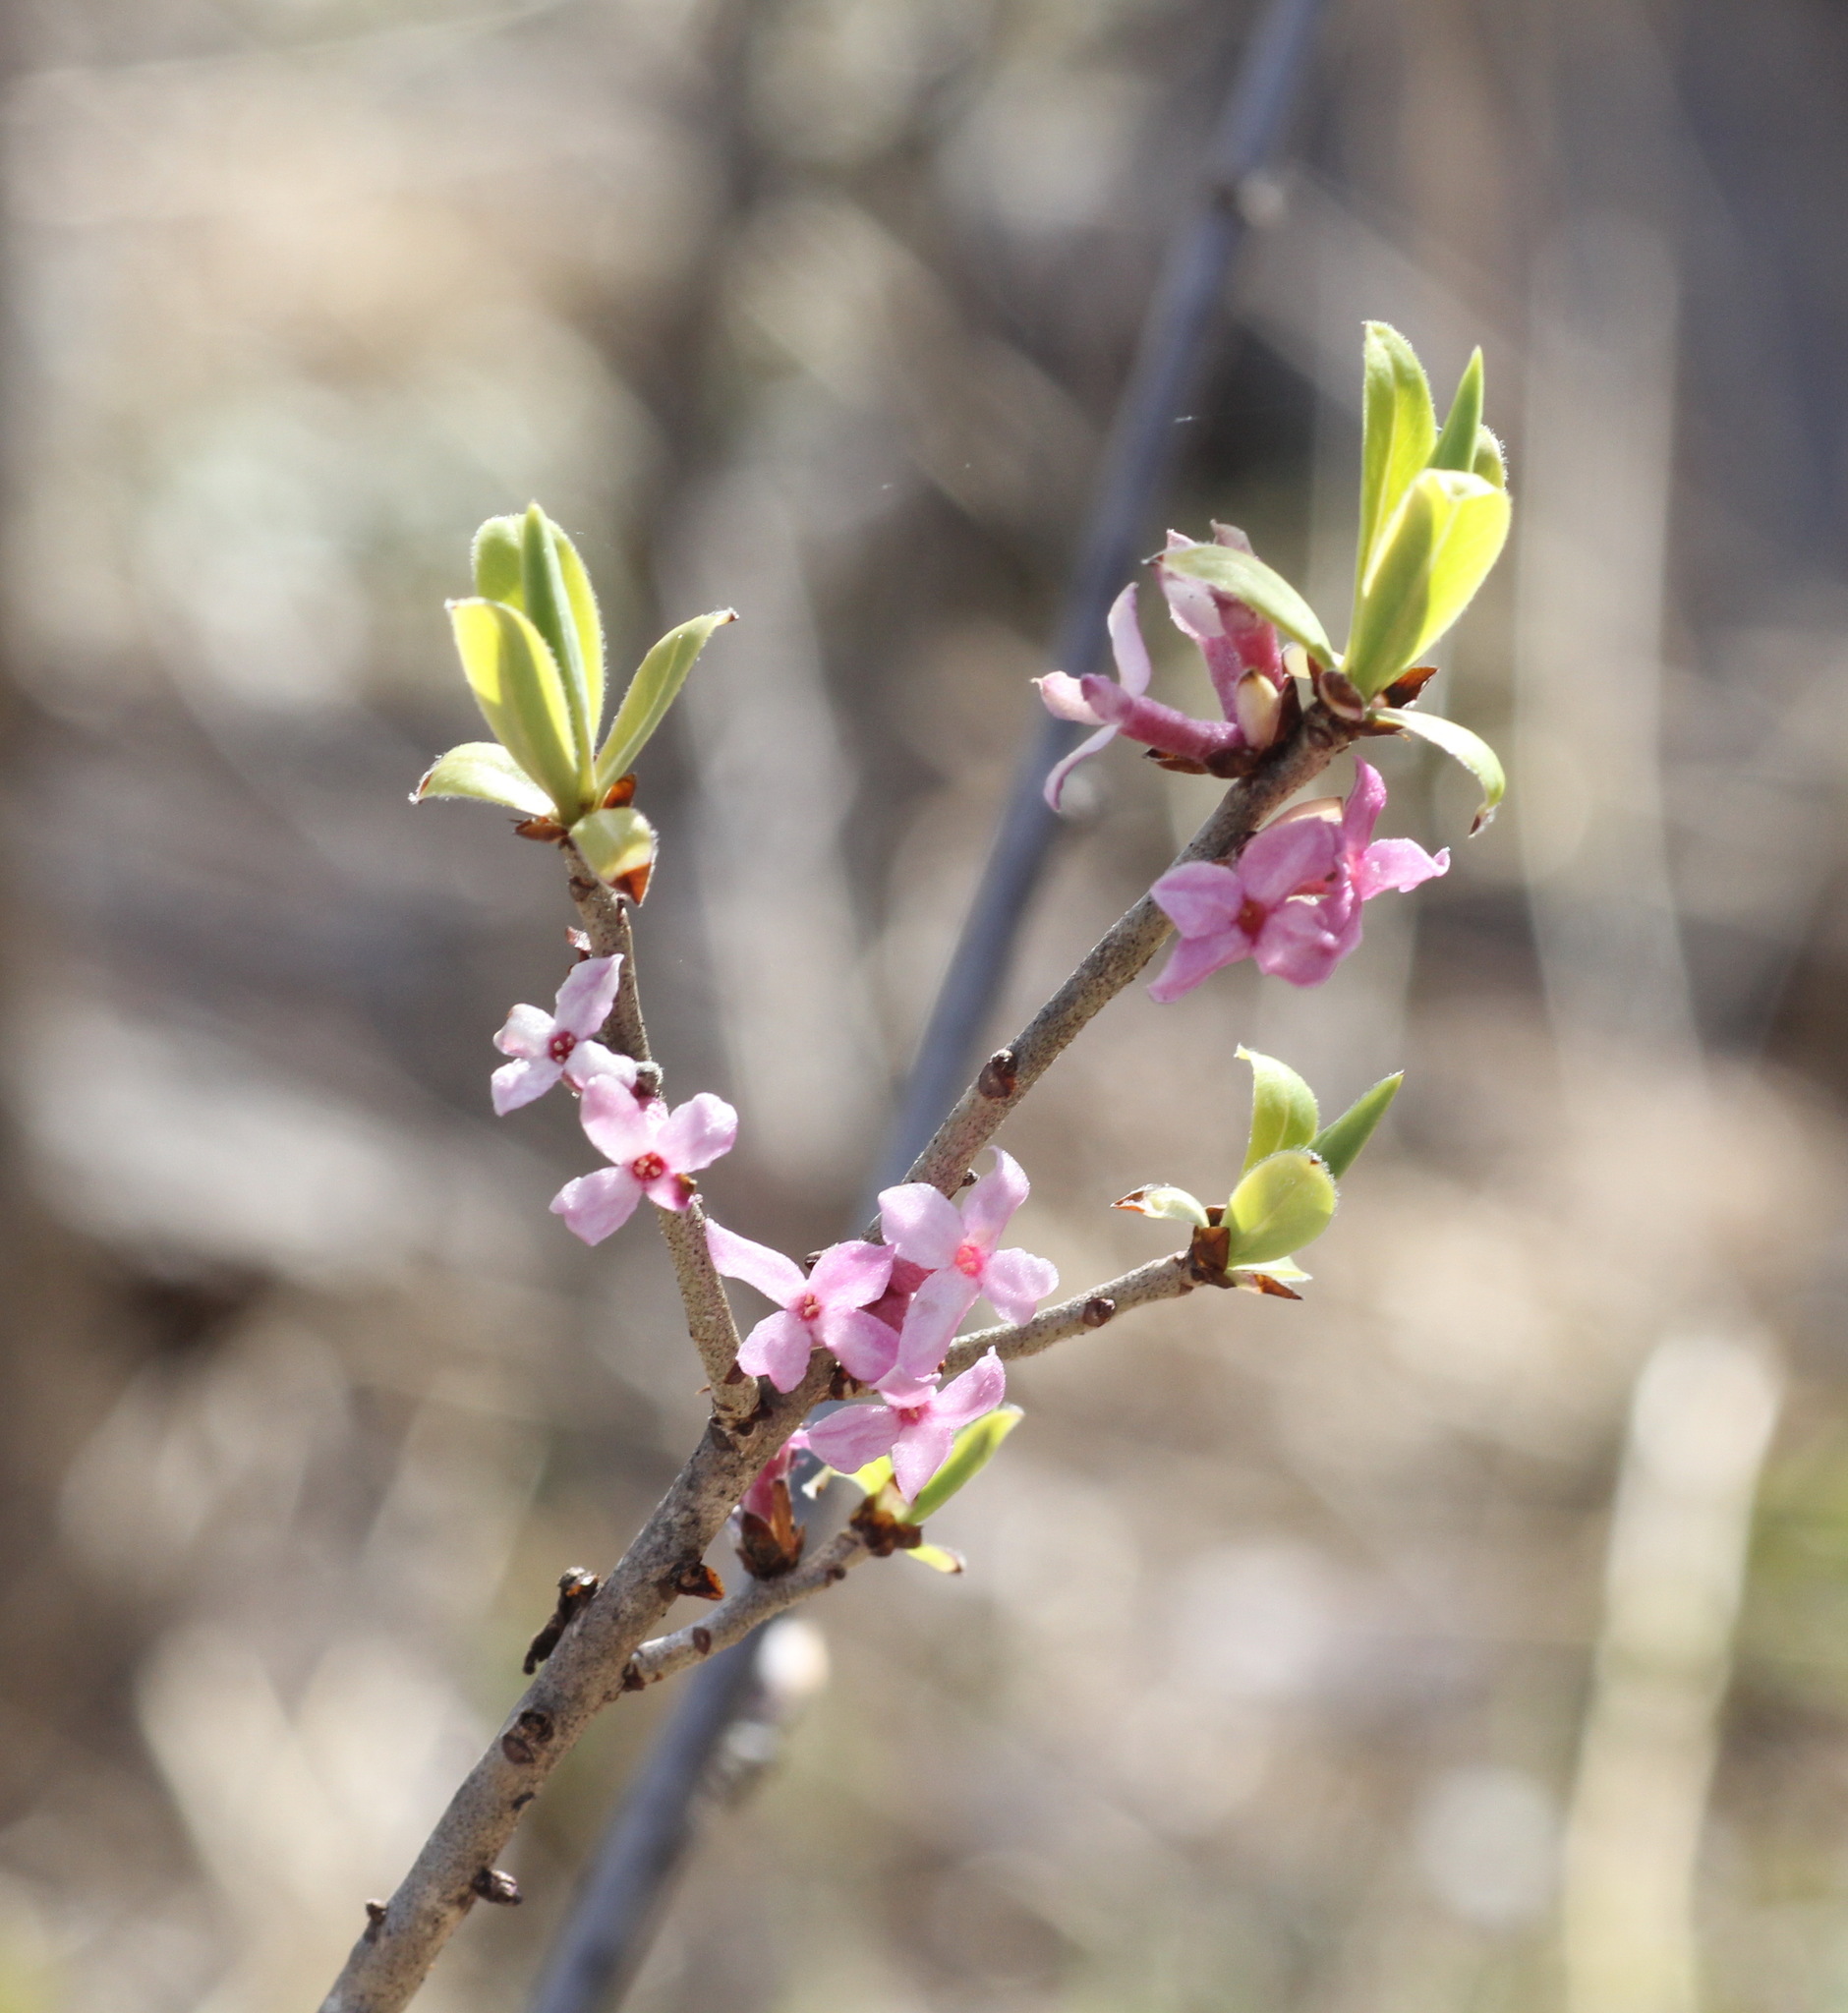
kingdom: Plantae
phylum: Tracheophyta
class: Magnoliopsida
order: Malvales
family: Thymelaeaceae
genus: Daphne
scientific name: Daphne mezereum
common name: Mezereon
